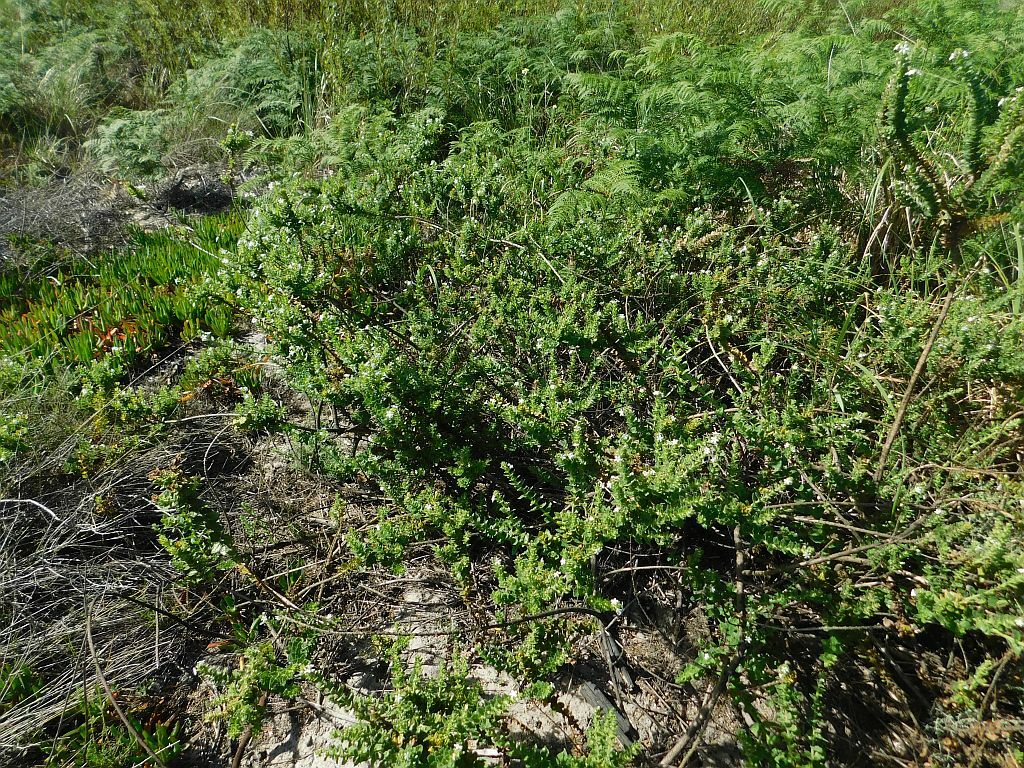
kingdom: Plantae
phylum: Tracheophyta
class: Magnoliopsida
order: Lamiales
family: Scrophulariaceae
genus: Oftia
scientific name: Oftia africana
